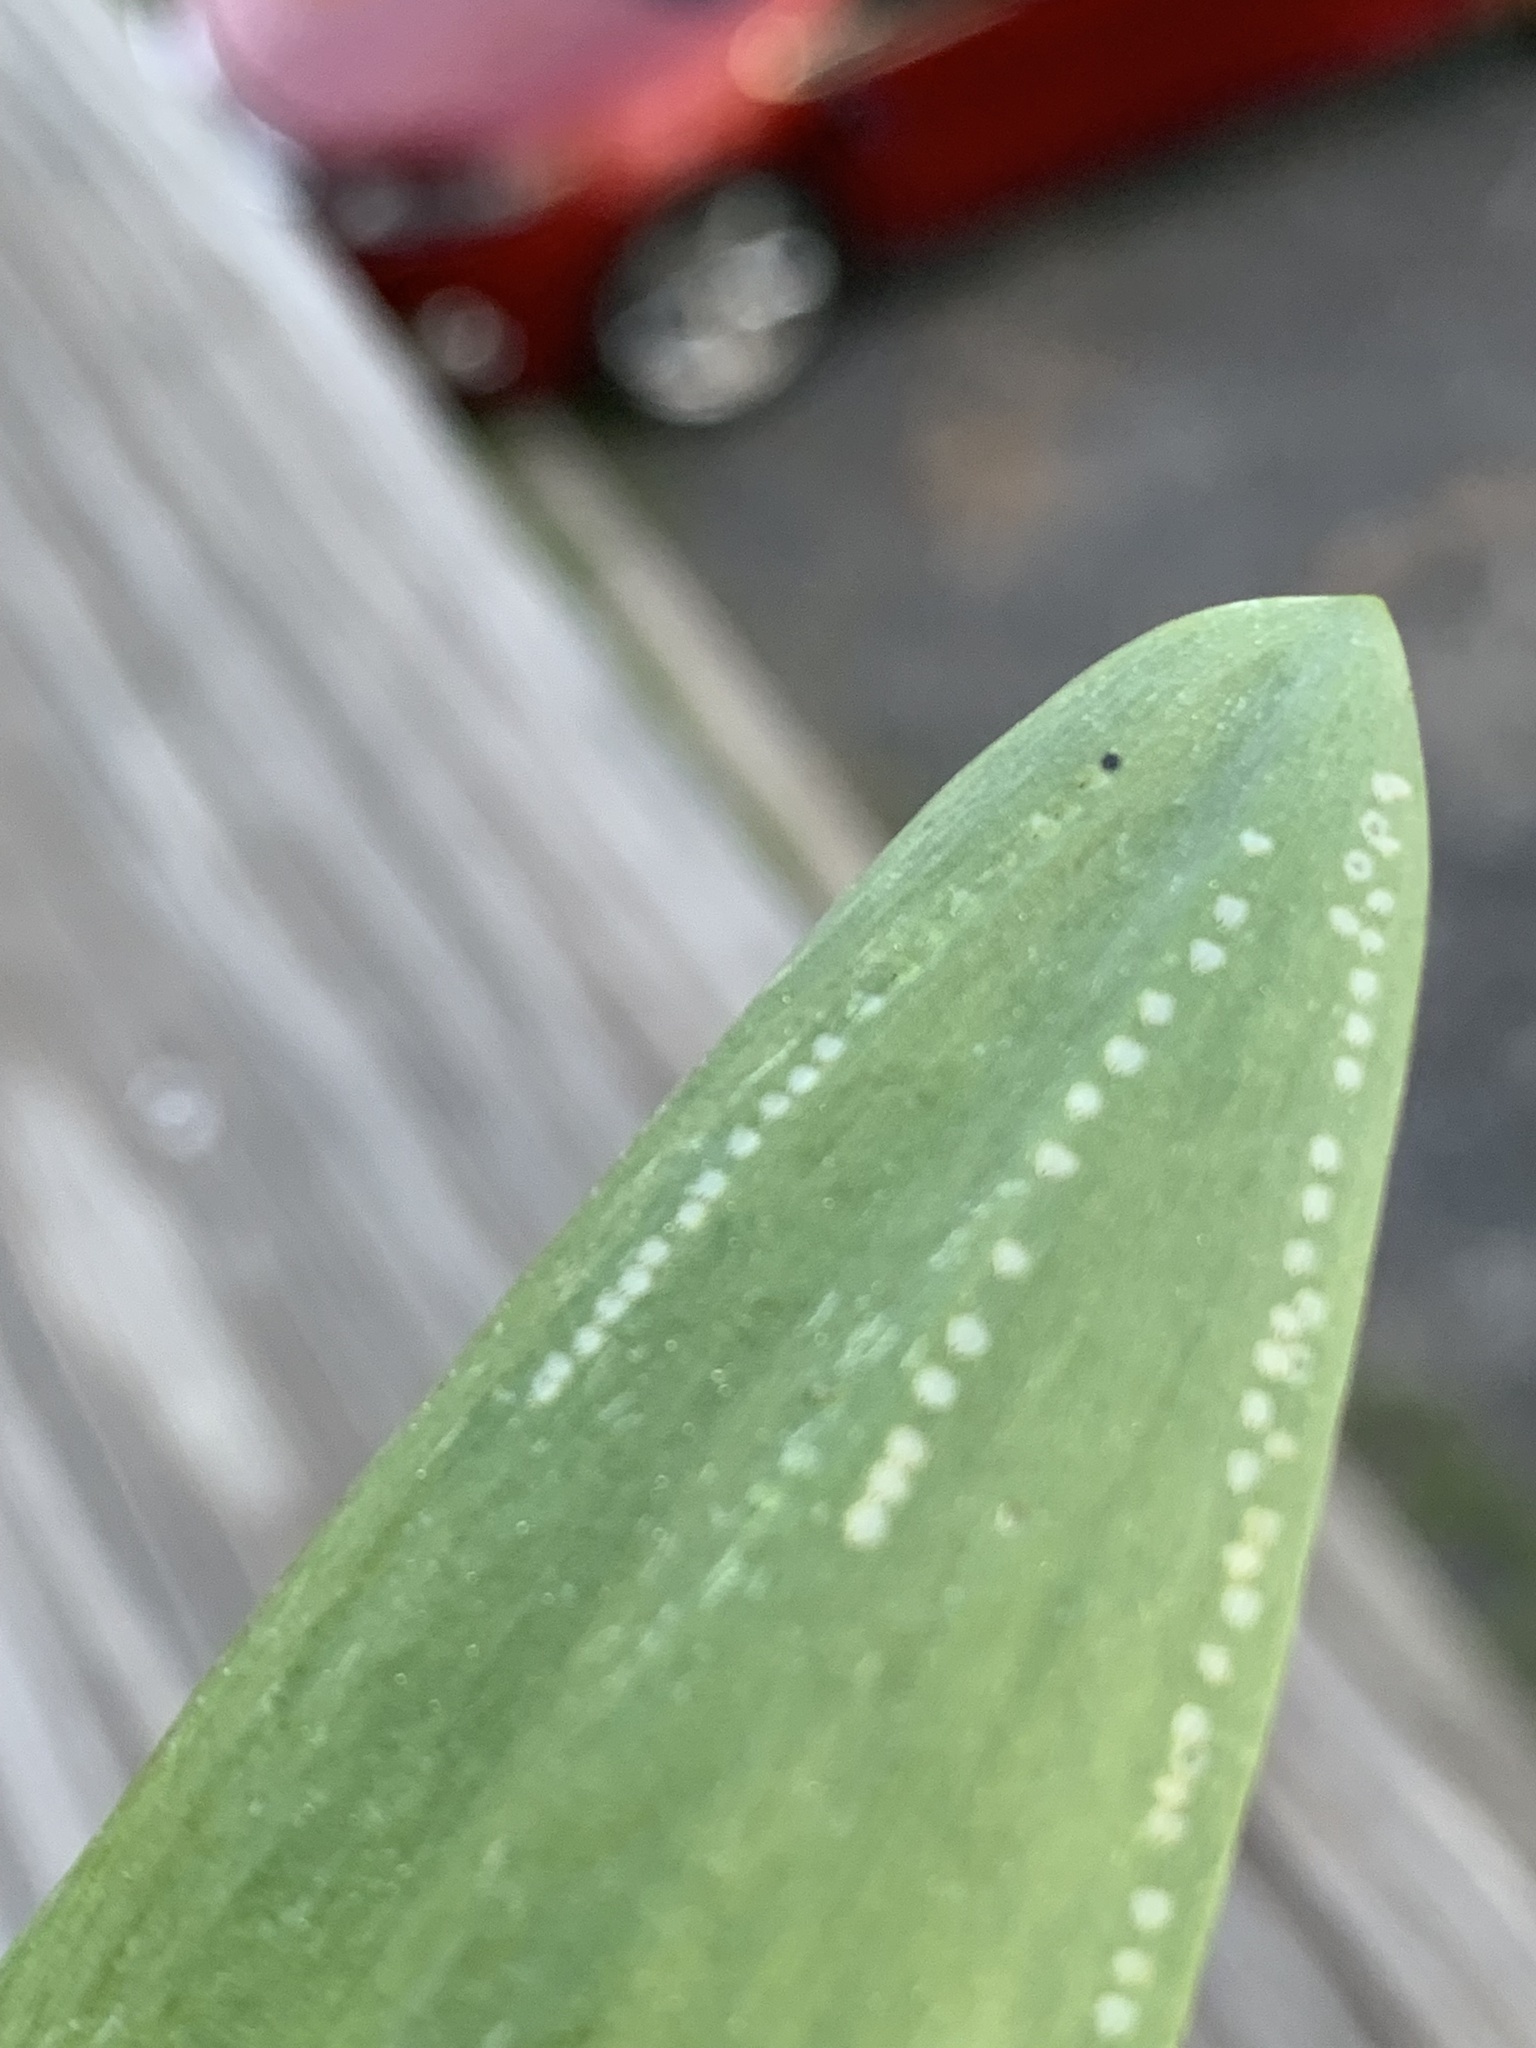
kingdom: Animalia
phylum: Arthropoda
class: Insecta
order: Diptera
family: Agromyzidae
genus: Phytomyza
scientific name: Phytomyza gymnostoma
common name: Allium leafminer
